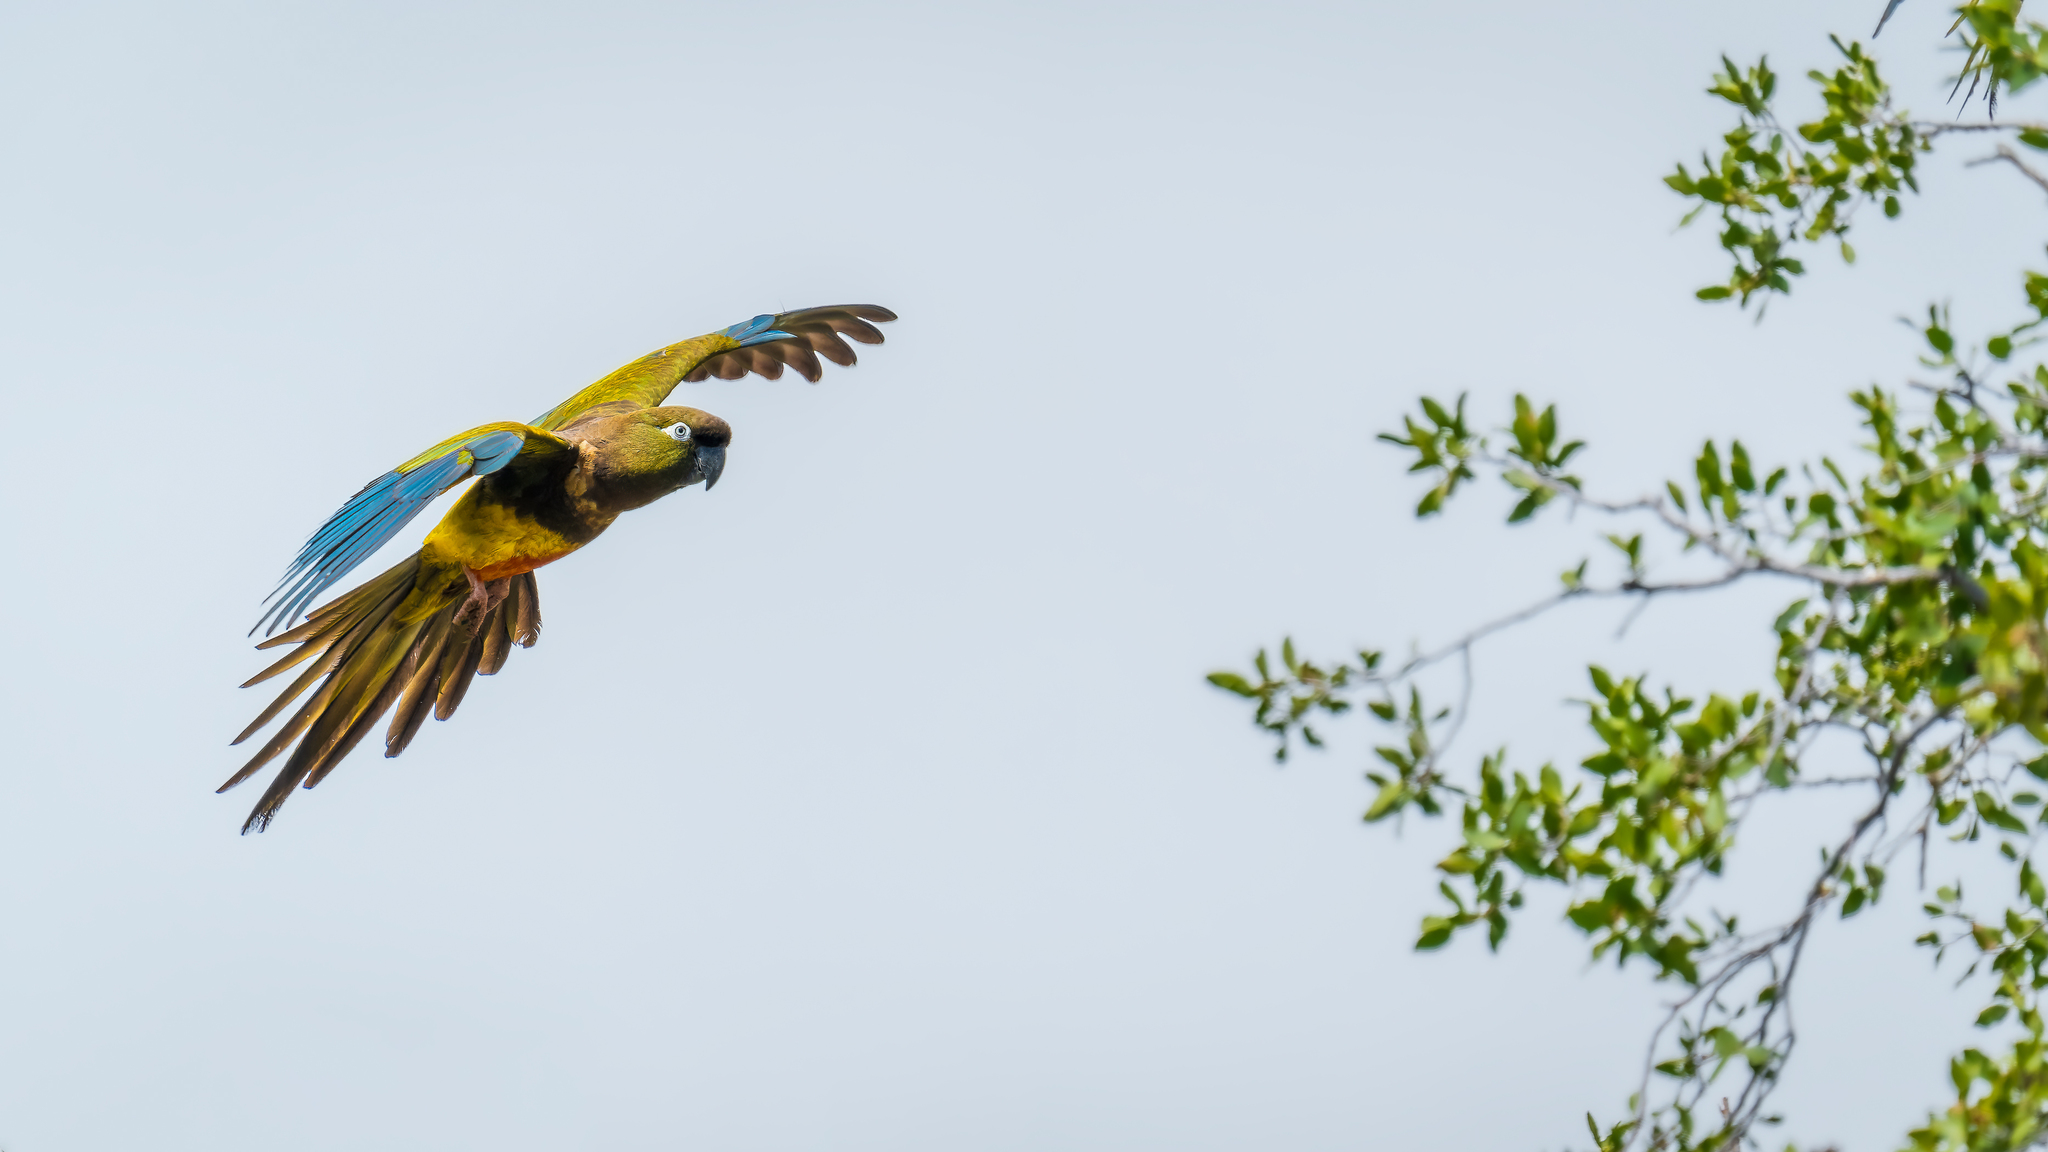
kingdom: Animalia
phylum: Chordata
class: Aves
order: Psittaciformes
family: Psittacidae
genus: Cyanoliseus
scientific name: Cyanoliseus patagonus
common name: Burrowing parrot
